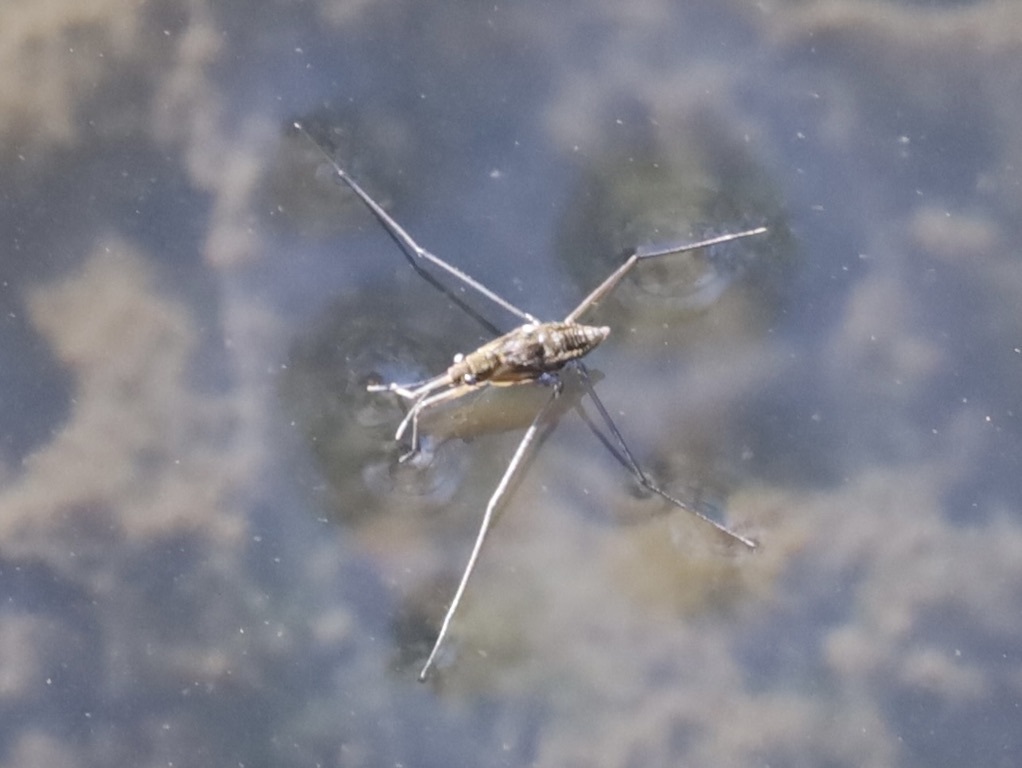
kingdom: Animalia
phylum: Arthropoda
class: Insecta
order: Hemiptera
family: Gerridae
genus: Aquarius
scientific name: Aquarius remigis
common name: Common water strider
